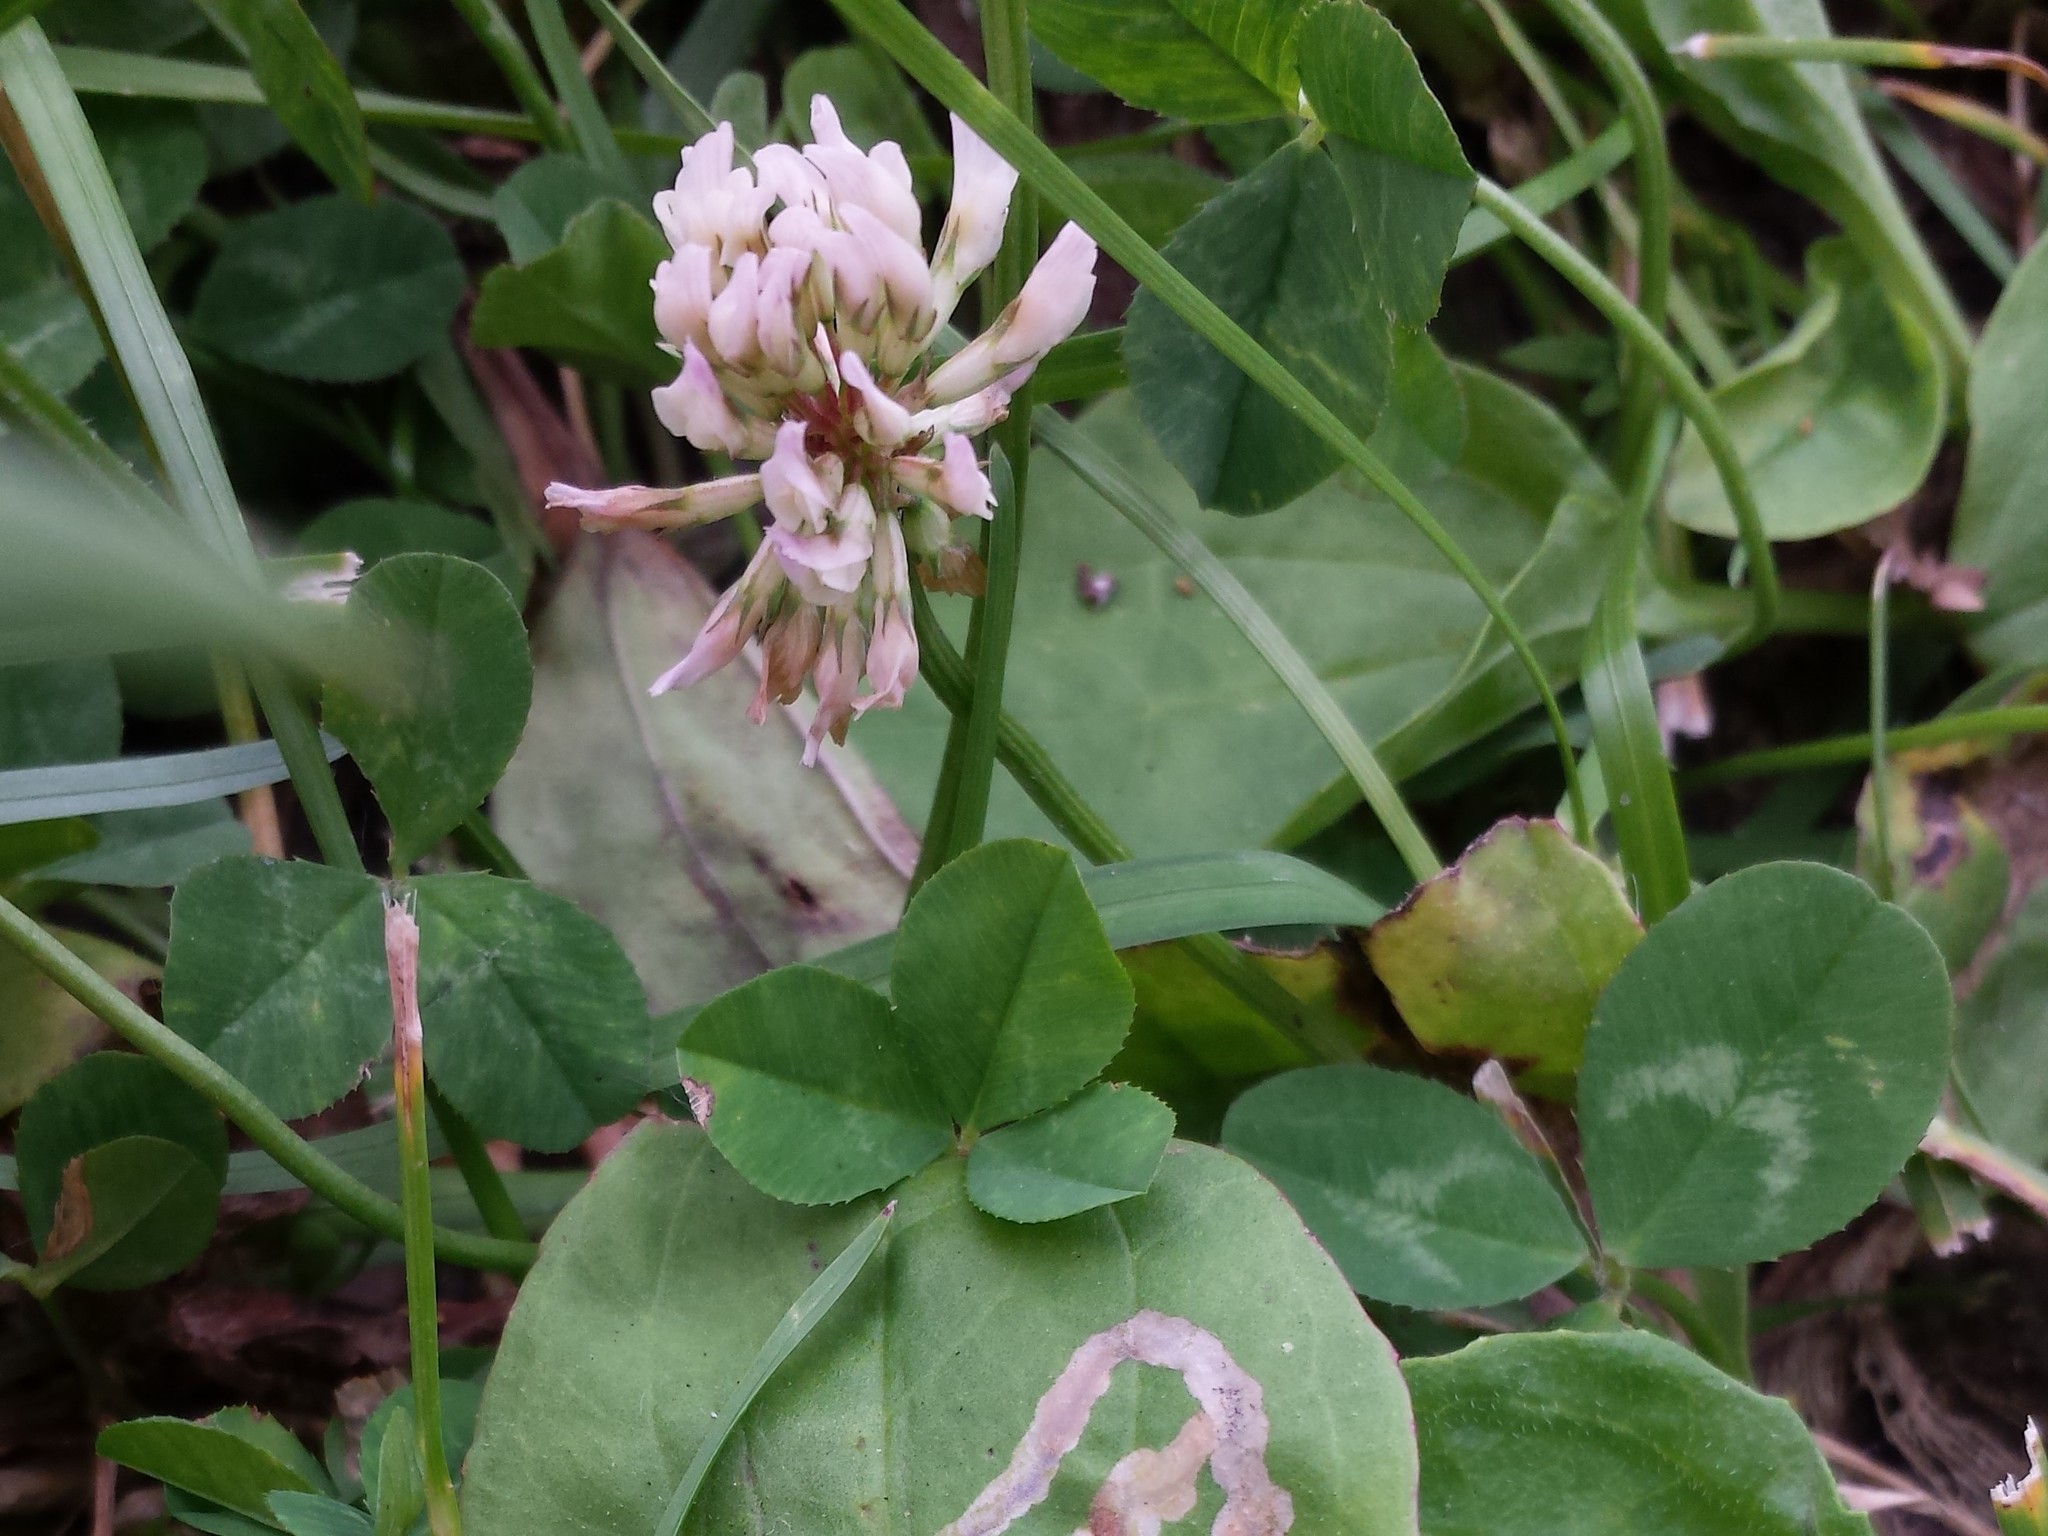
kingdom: Plantae
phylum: Tracheophyta
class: Magnoliopsida
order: Fabales
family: Fabaceae
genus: Trifolium
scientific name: Trifolium repens
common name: White clover
